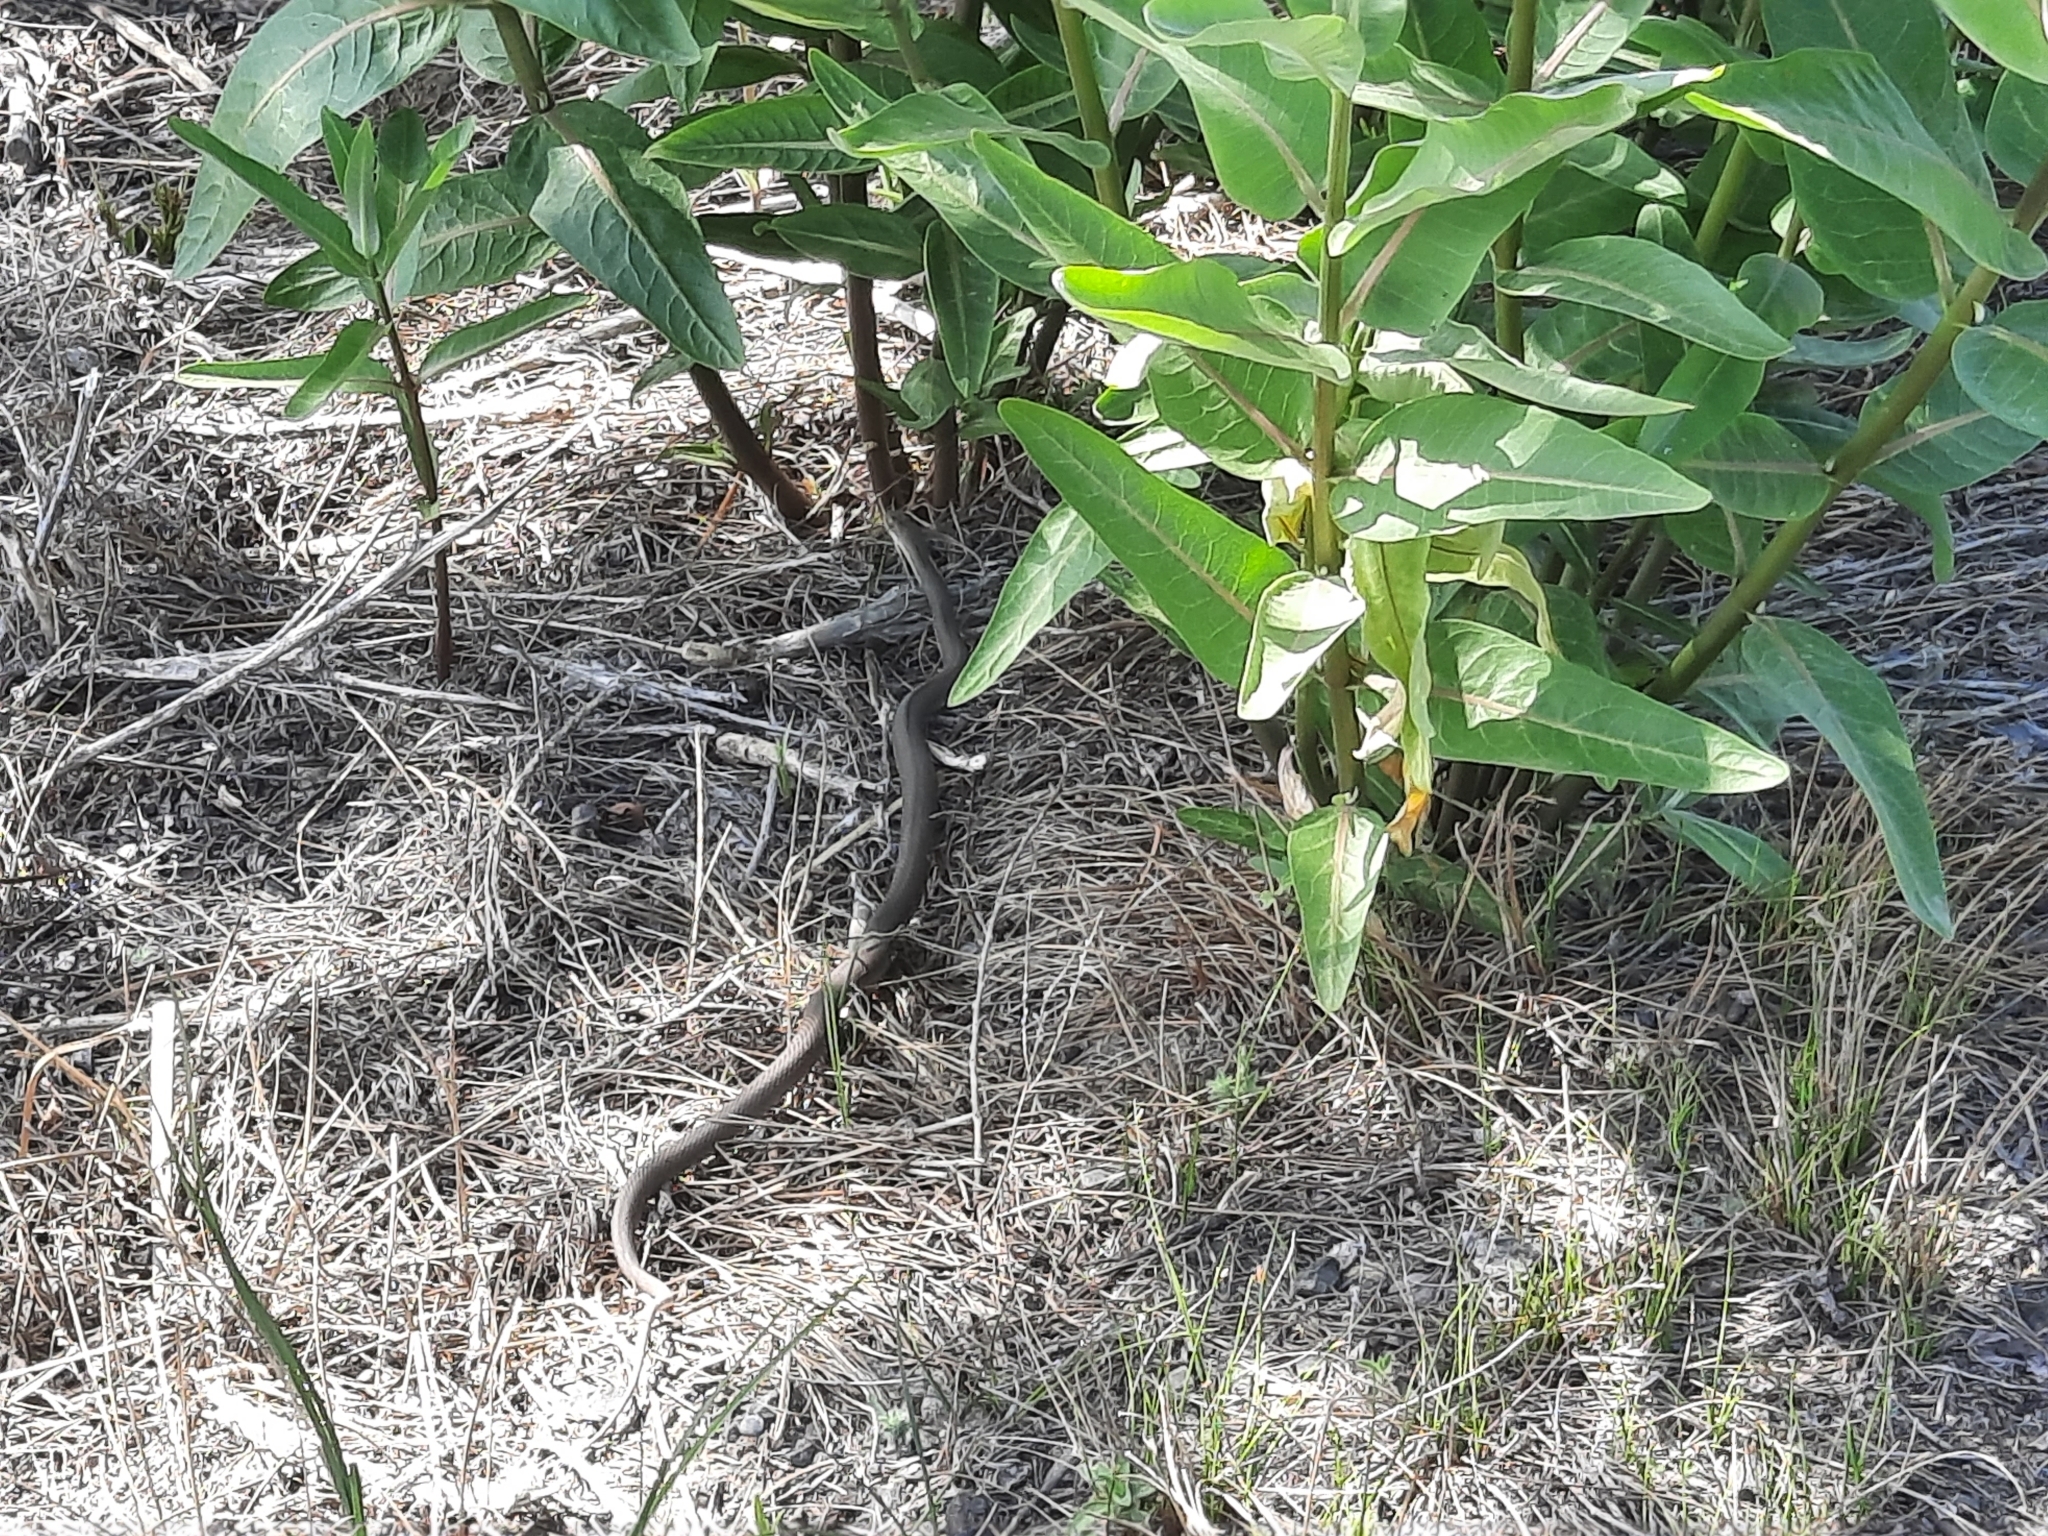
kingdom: Animalia
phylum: Chordata
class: Squamata
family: Colubridae
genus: Coluber
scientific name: Coluber constrictor
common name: Eastern racer
